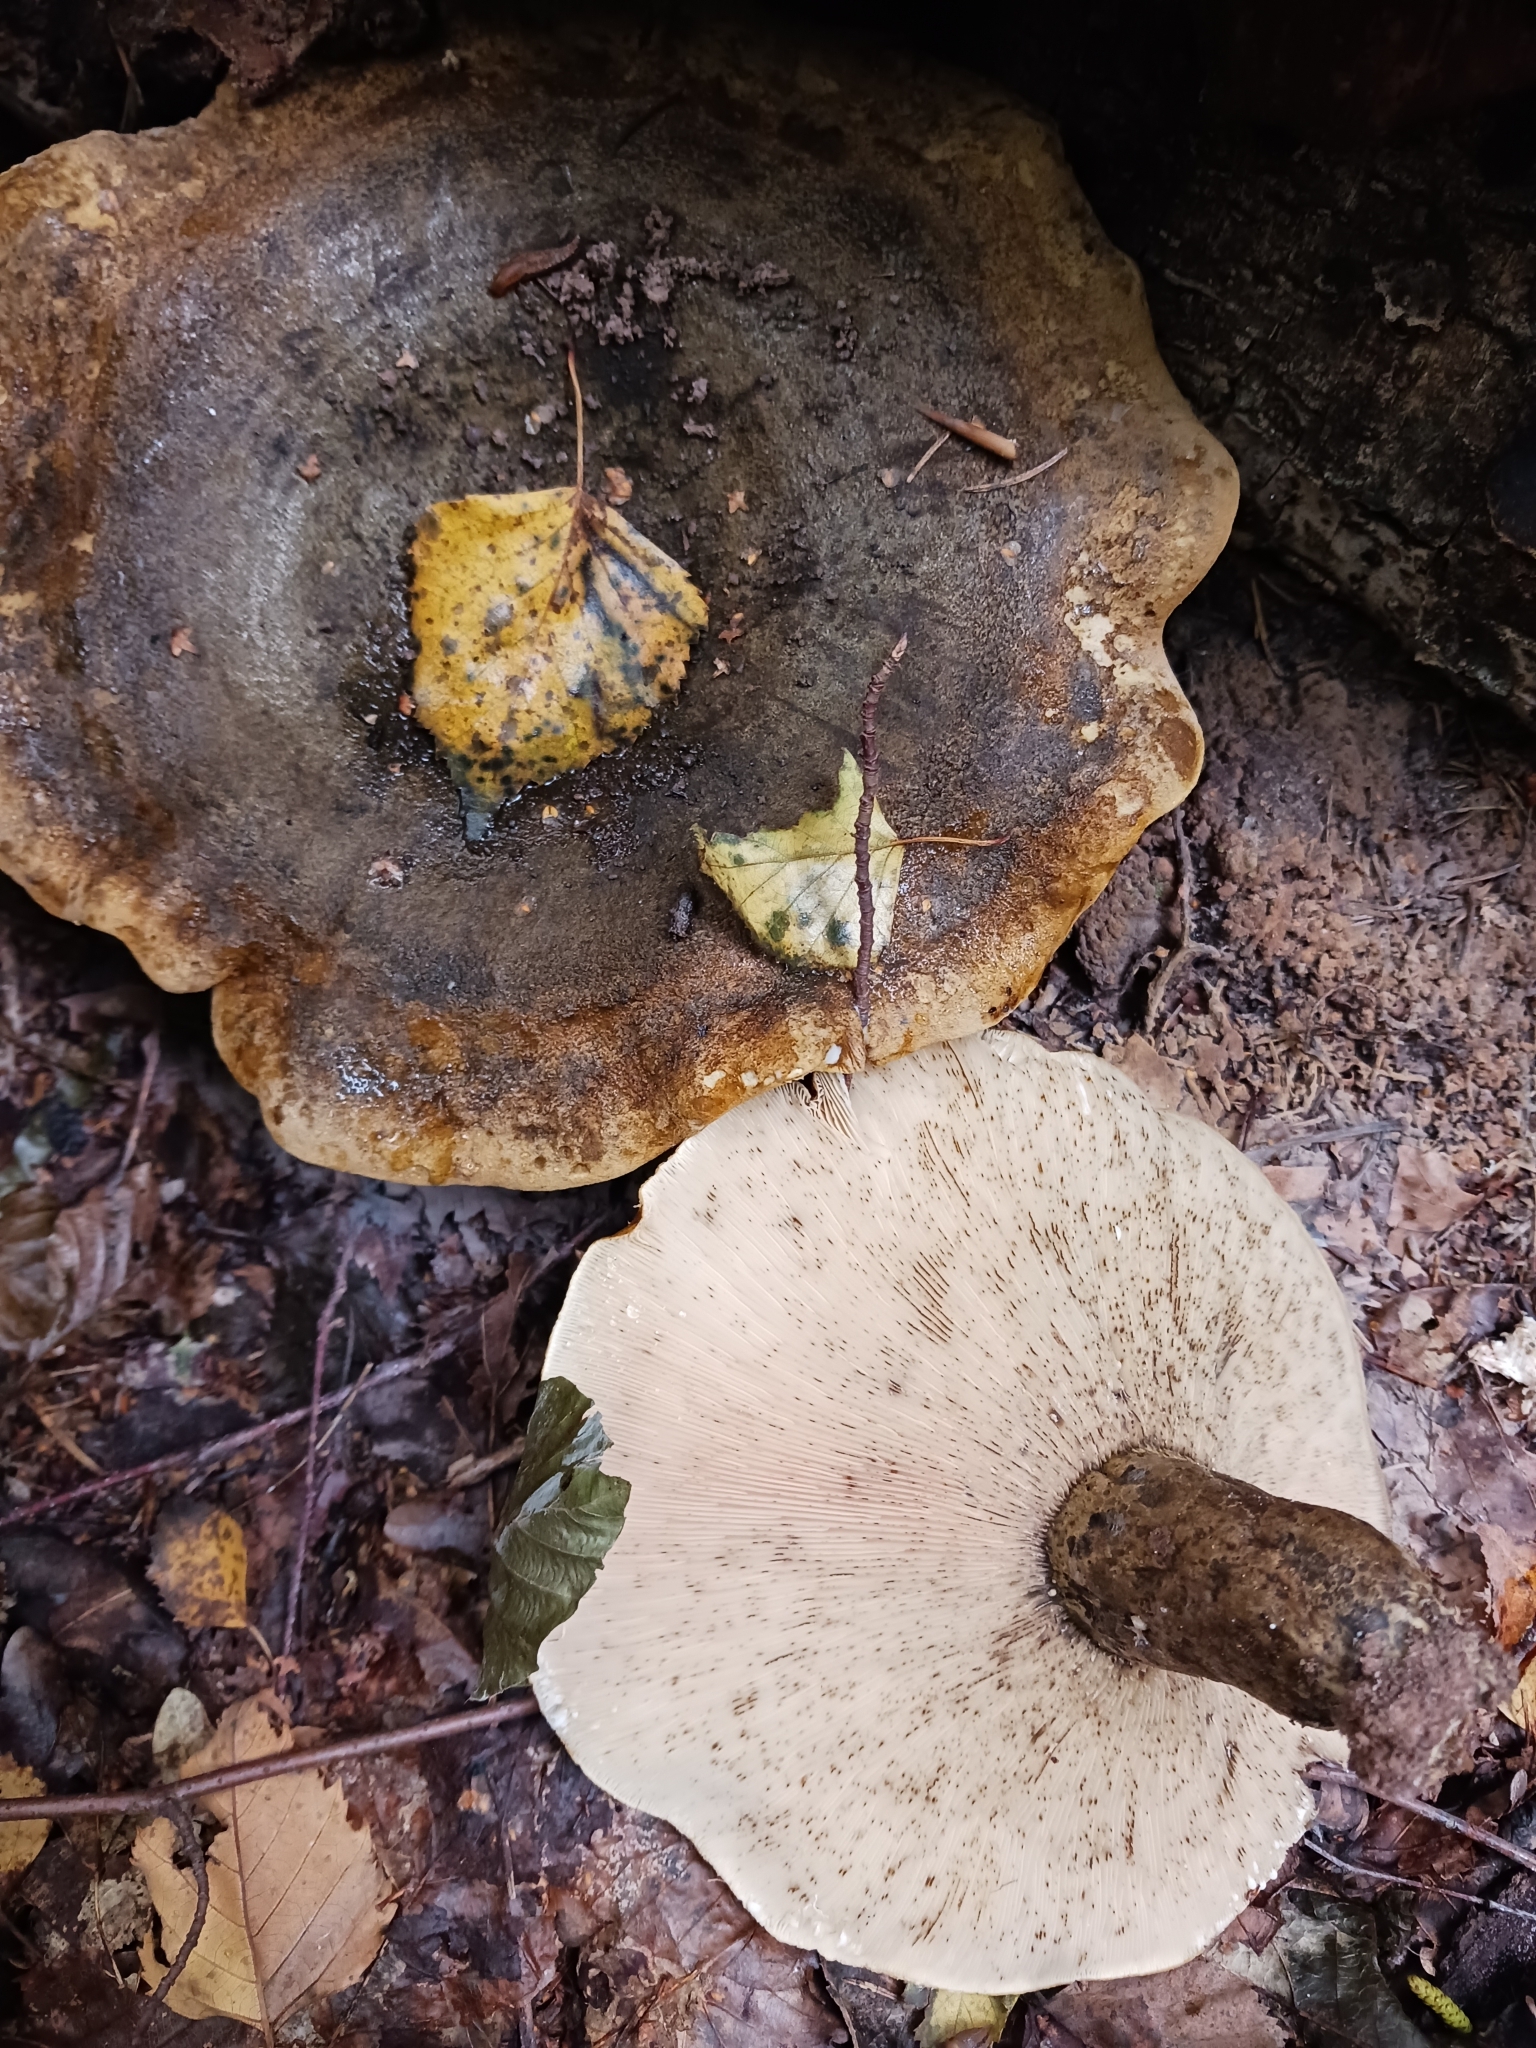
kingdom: Fungi
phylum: Basidiomycota
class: Agaricomycetes
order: Russulales
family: Russulaceae
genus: Lactarius
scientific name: Lactarius turpis
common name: Ugly milk-cap
